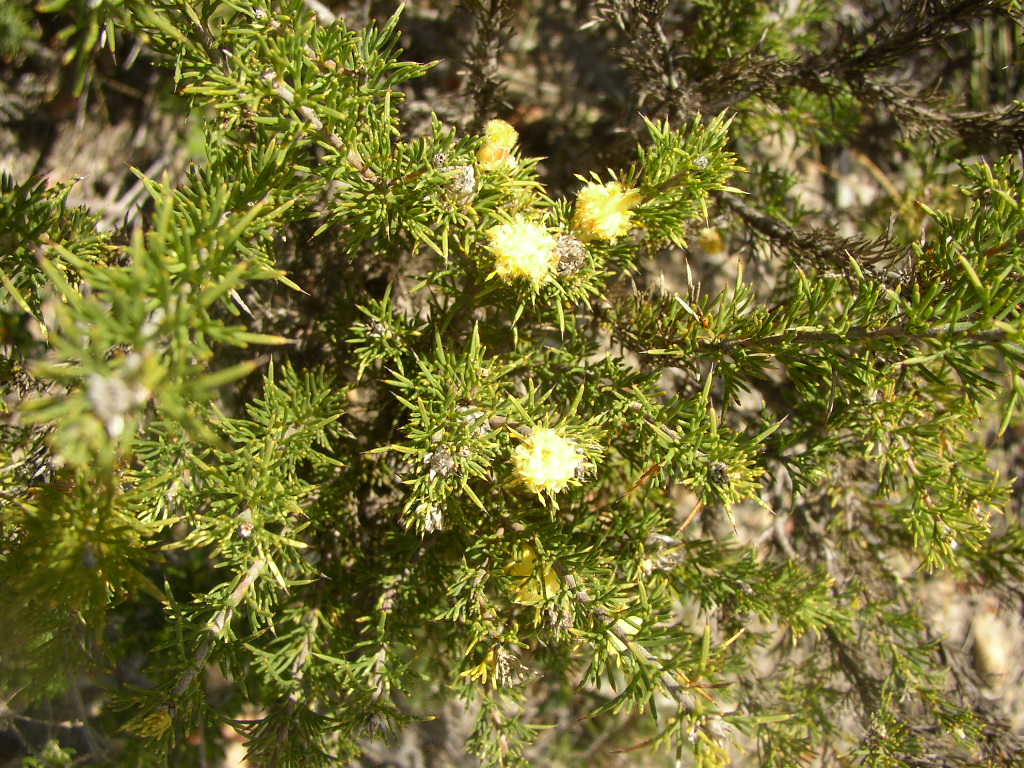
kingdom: Plantae
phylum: Tracheophyta
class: Magnoliopsida
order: Proteales
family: Proteaceae
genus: Petrophile
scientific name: Petrophile serruriae
